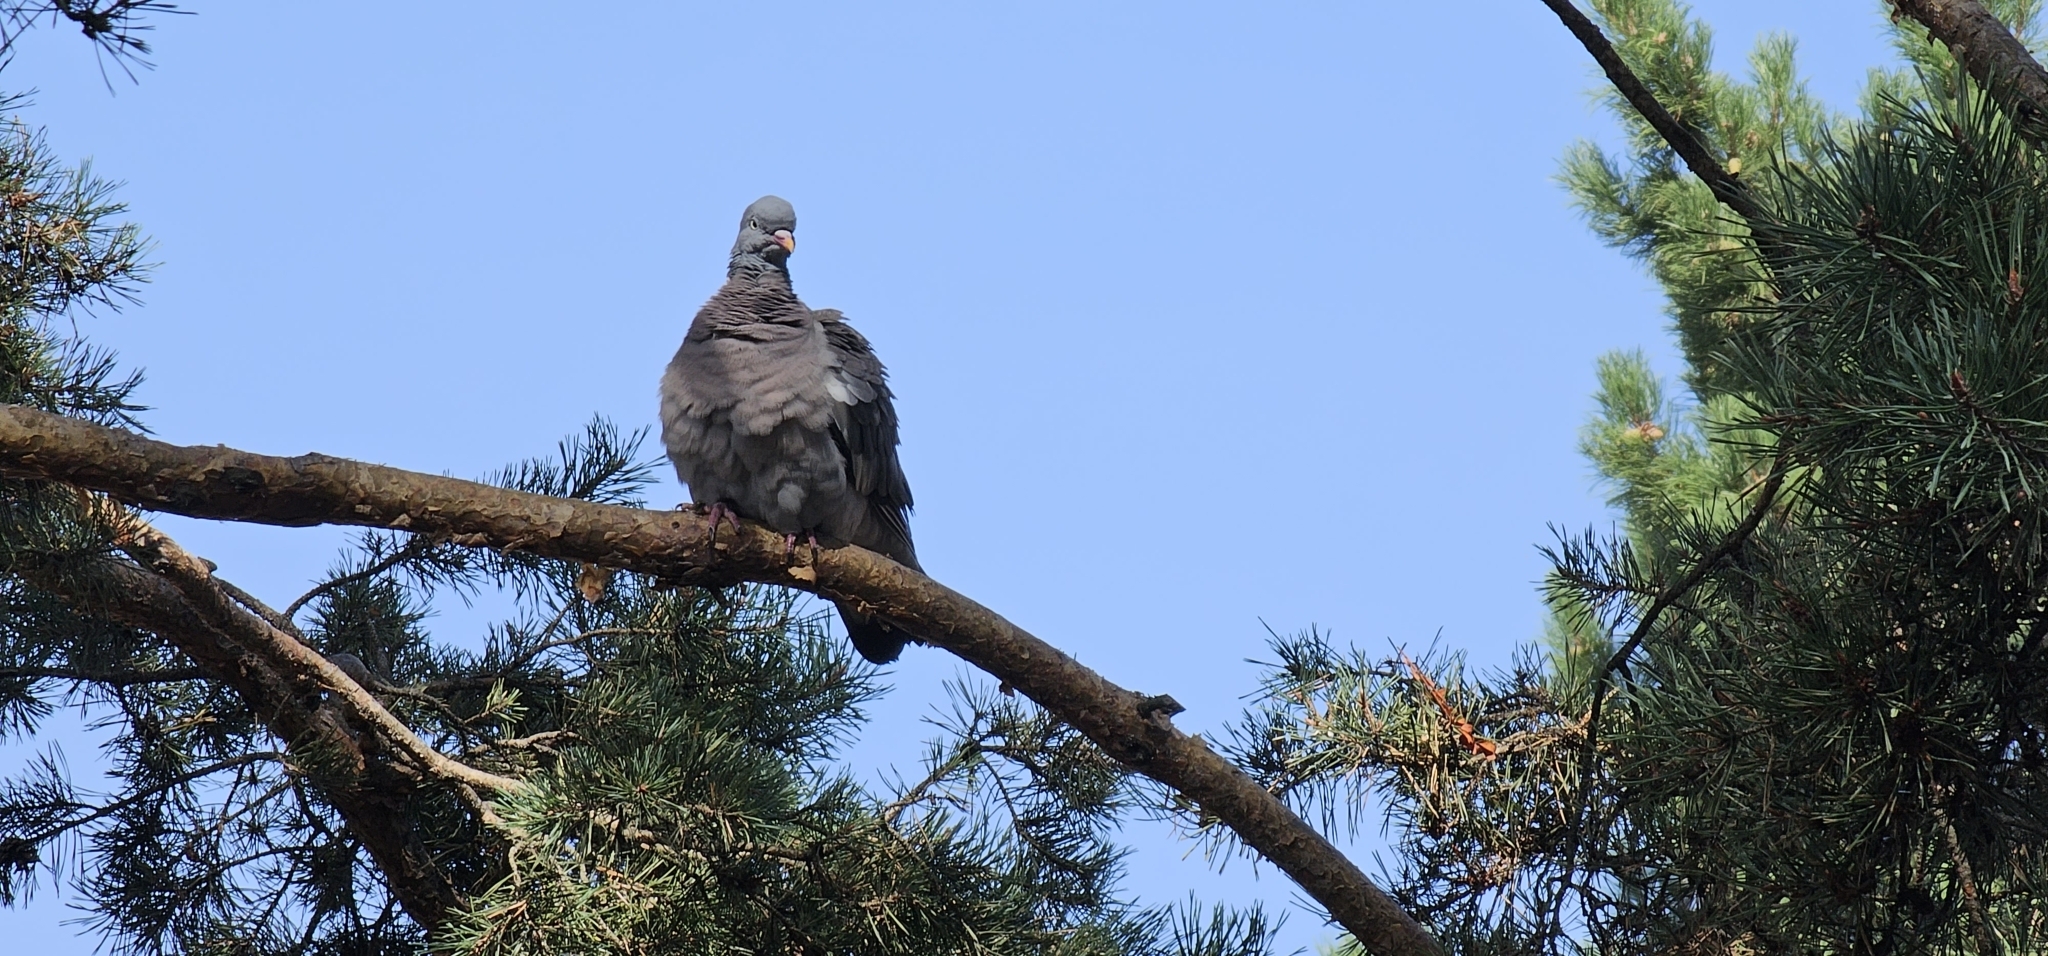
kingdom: Animalia
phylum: Chordata
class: Aves
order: Columbiformes
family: Columbidae
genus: Columba
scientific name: Columba palumbus
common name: Common wood pigeon
